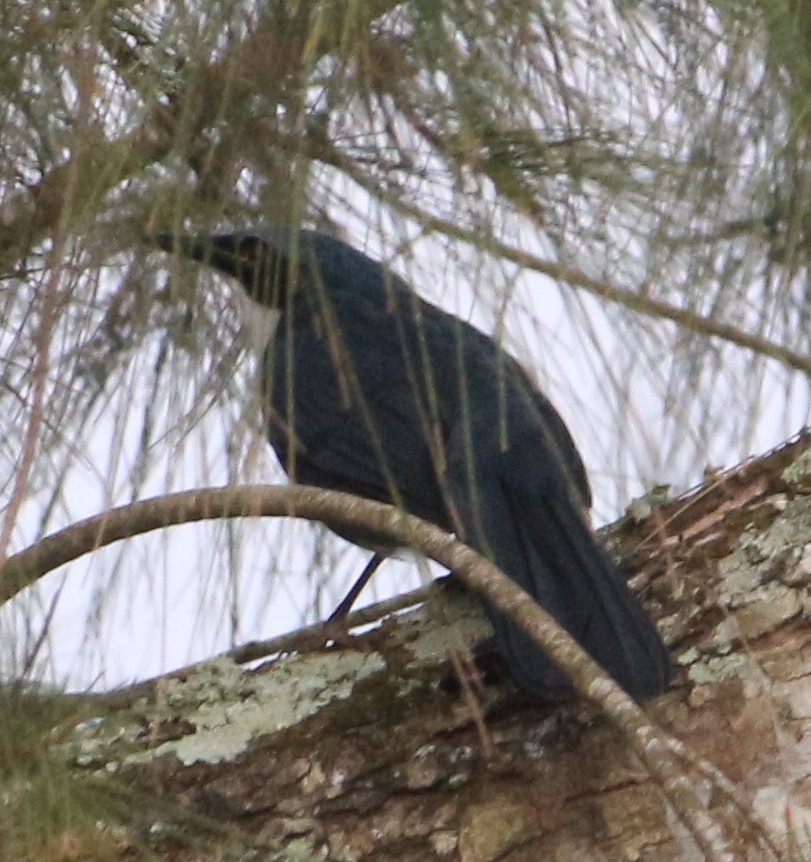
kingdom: Animalia
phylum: Chordata
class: Aves
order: Passeriformes
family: Mimidae
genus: Melanotis
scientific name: Melanotis hypoleucus
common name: Blue-and-white mockingbird
